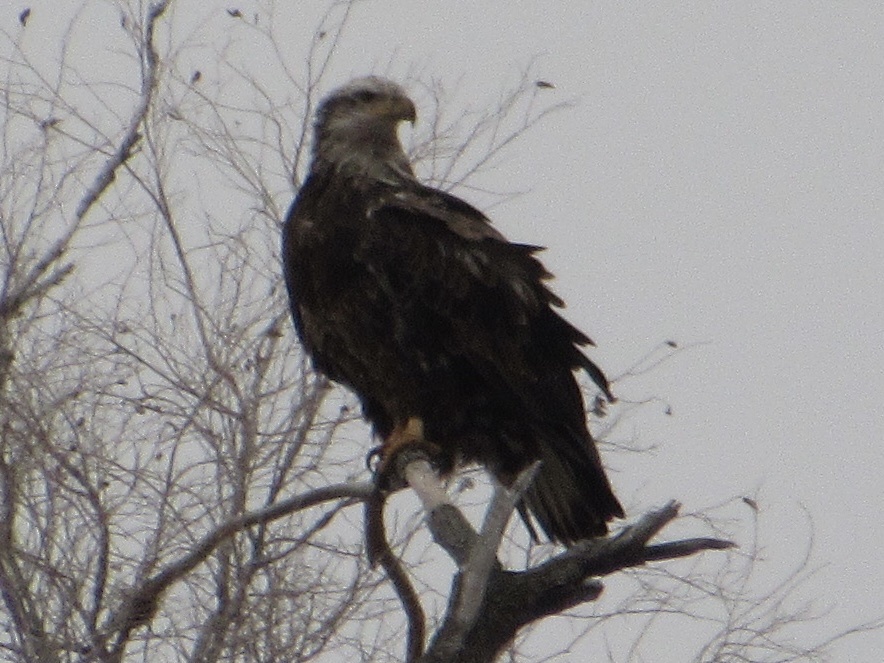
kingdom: Animalia
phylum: Chordata
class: Aves
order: Accipitriformes
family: Accipitridae
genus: Haliaeetus
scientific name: Haliaeetus leucocephalus
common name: Bald eagle
